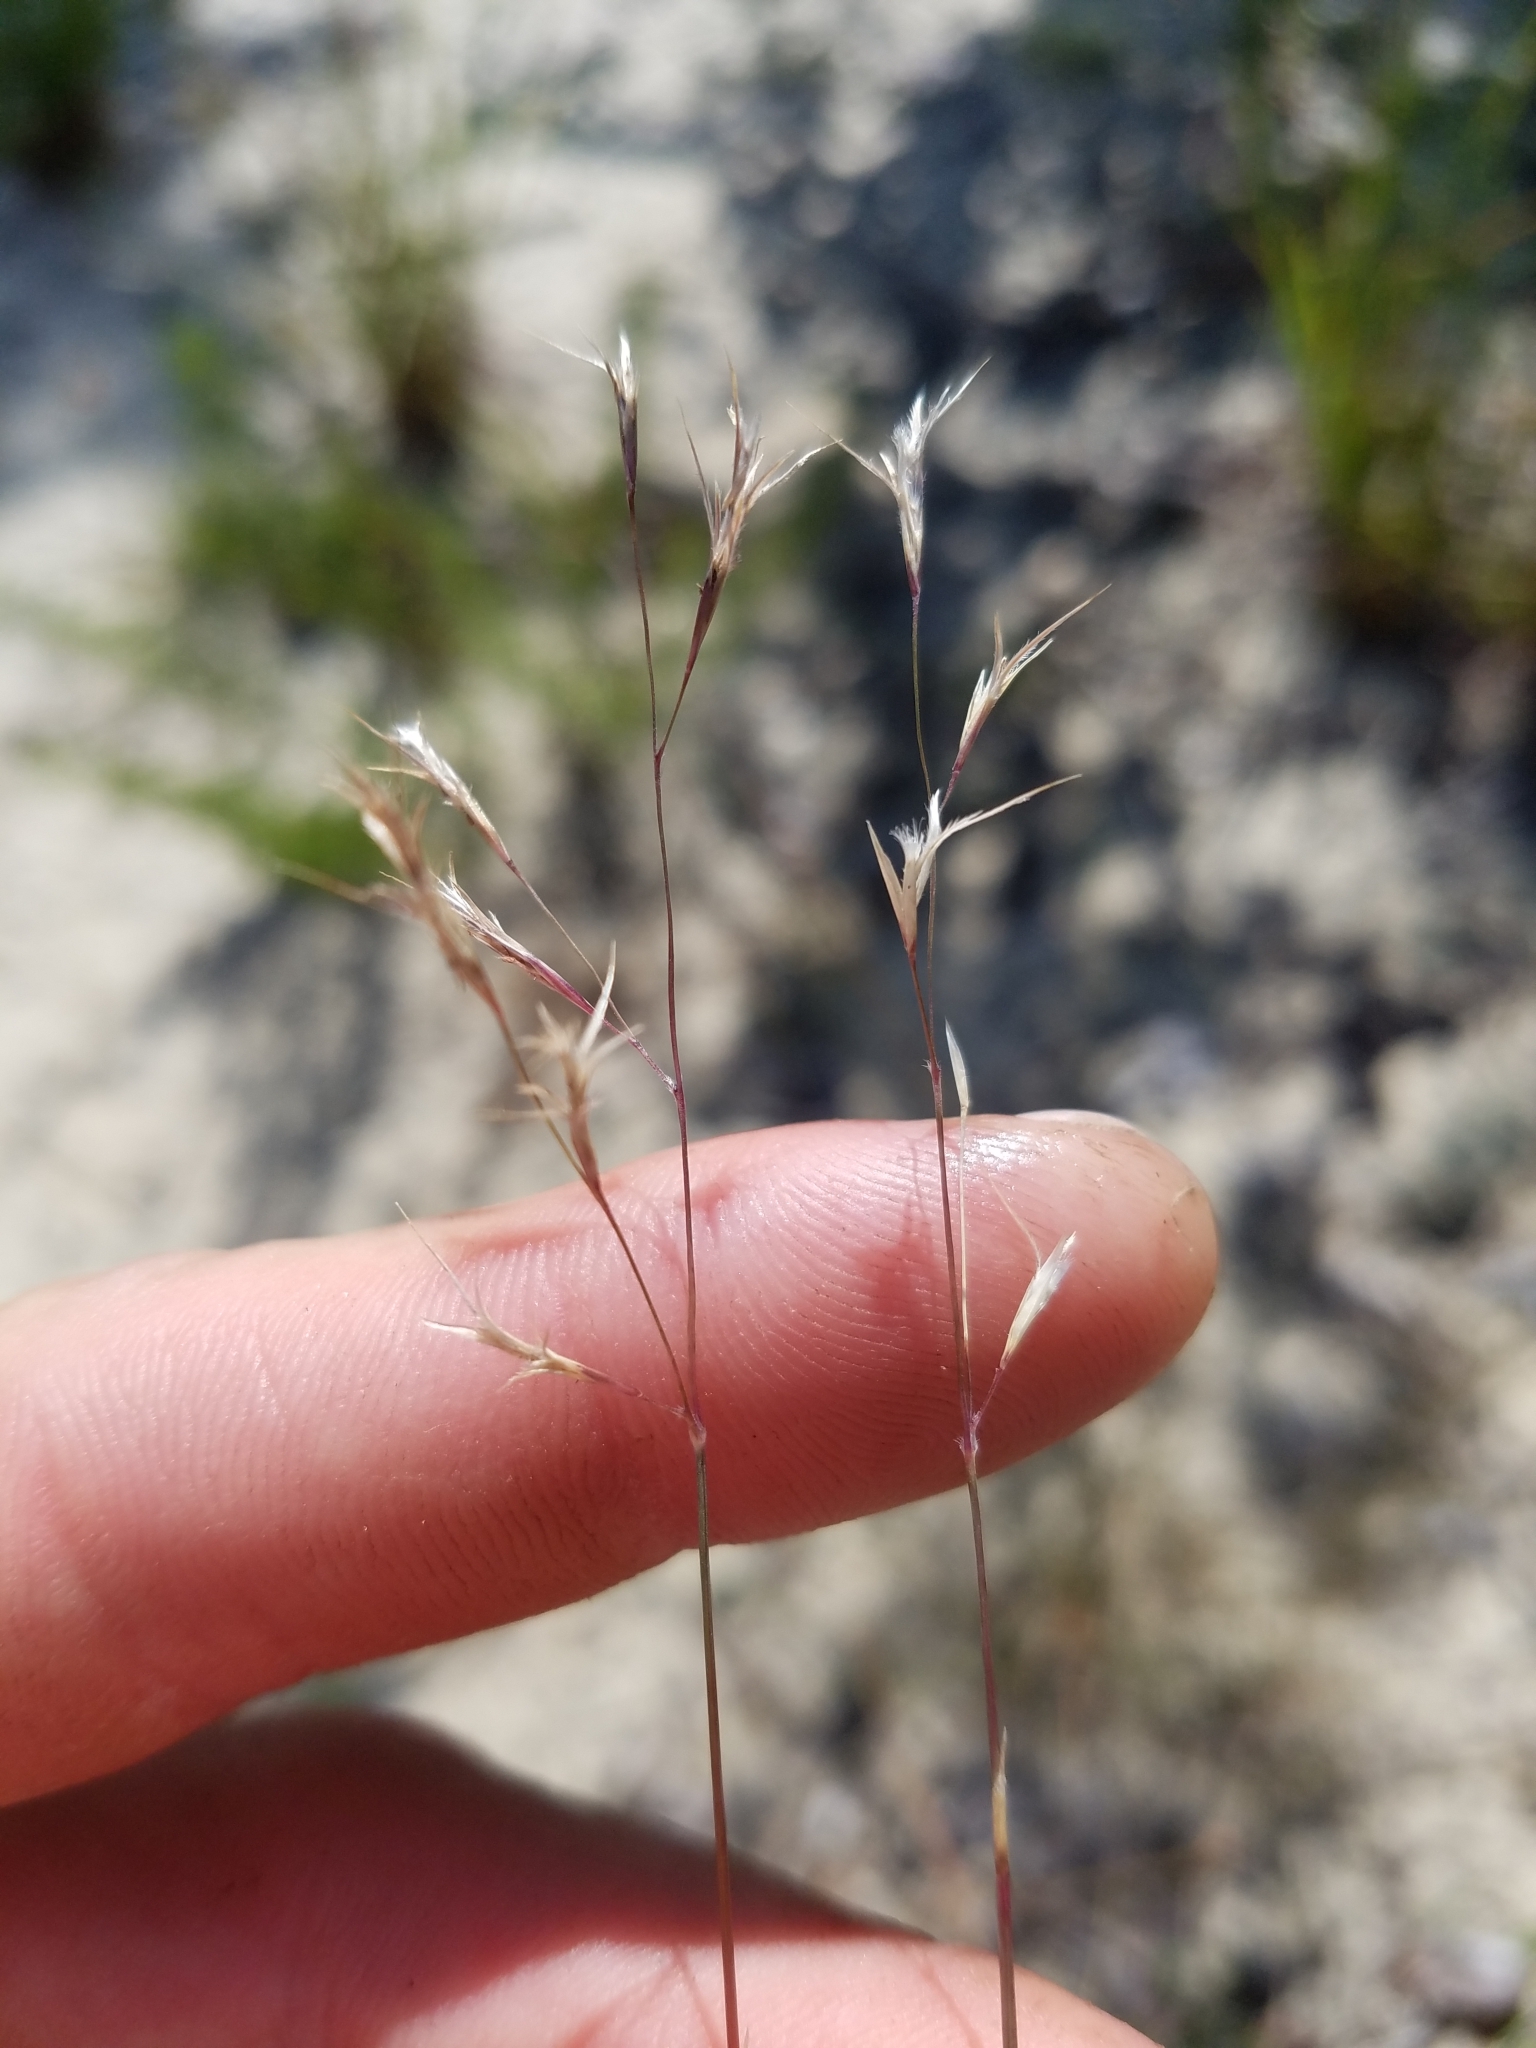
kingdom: Plantae
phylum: Tracheophyta
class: Liliopsida
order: Poales
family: Poaceae
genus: Triplasis
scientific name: Triplasis americana
